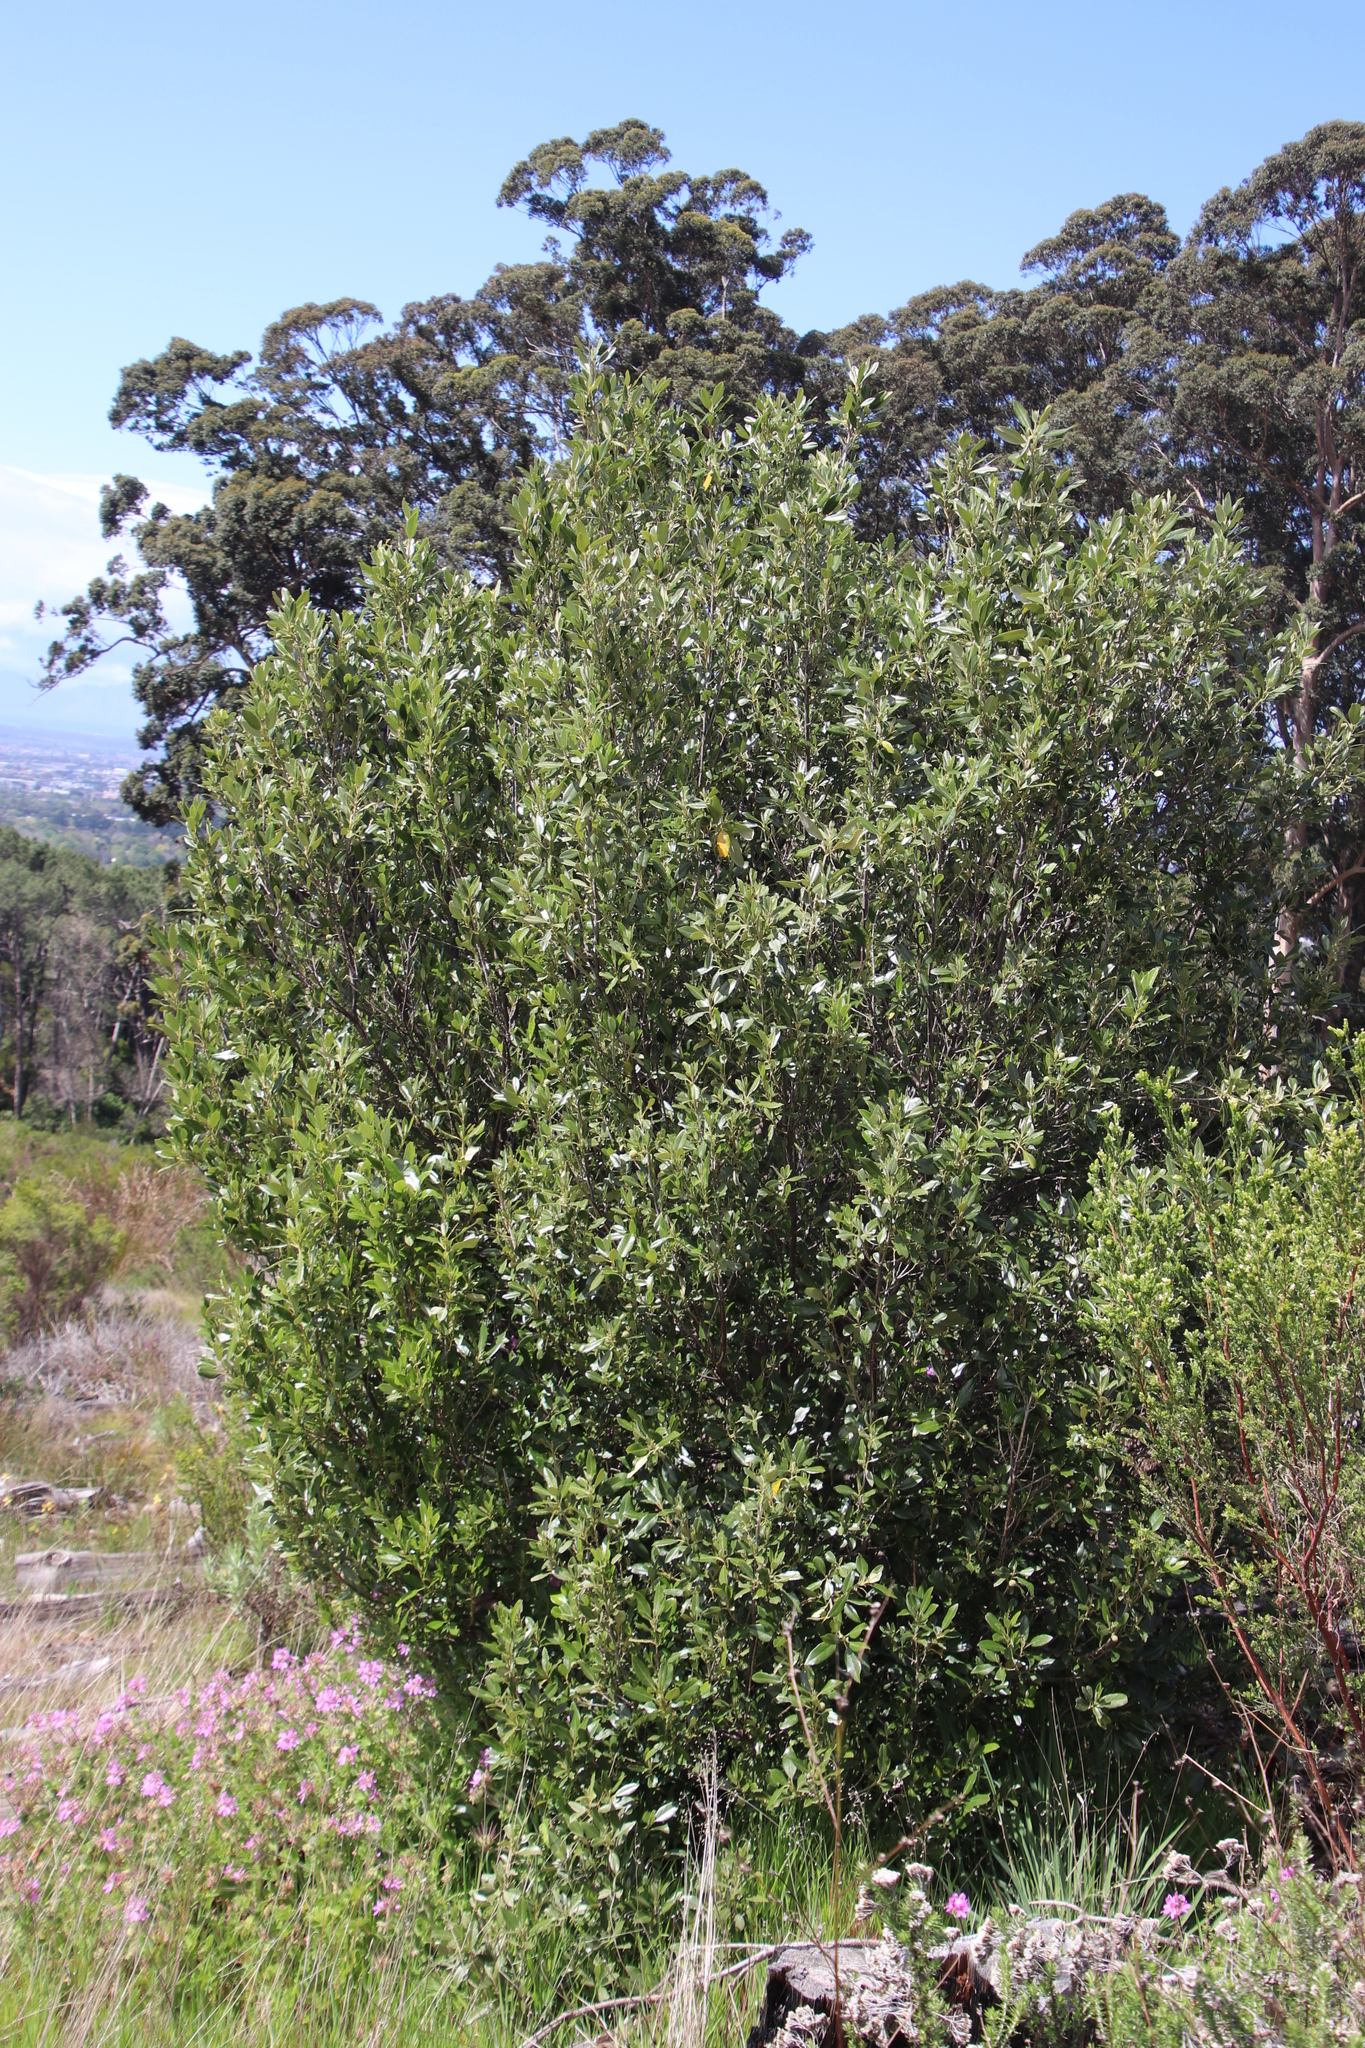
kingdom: Plantae
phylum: Tracheophyta
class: Magnoliopsida
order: Malpighiales
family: Achariaceae
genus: Kiggelaria
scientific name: Kiggelaria africana
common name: Wild peach
